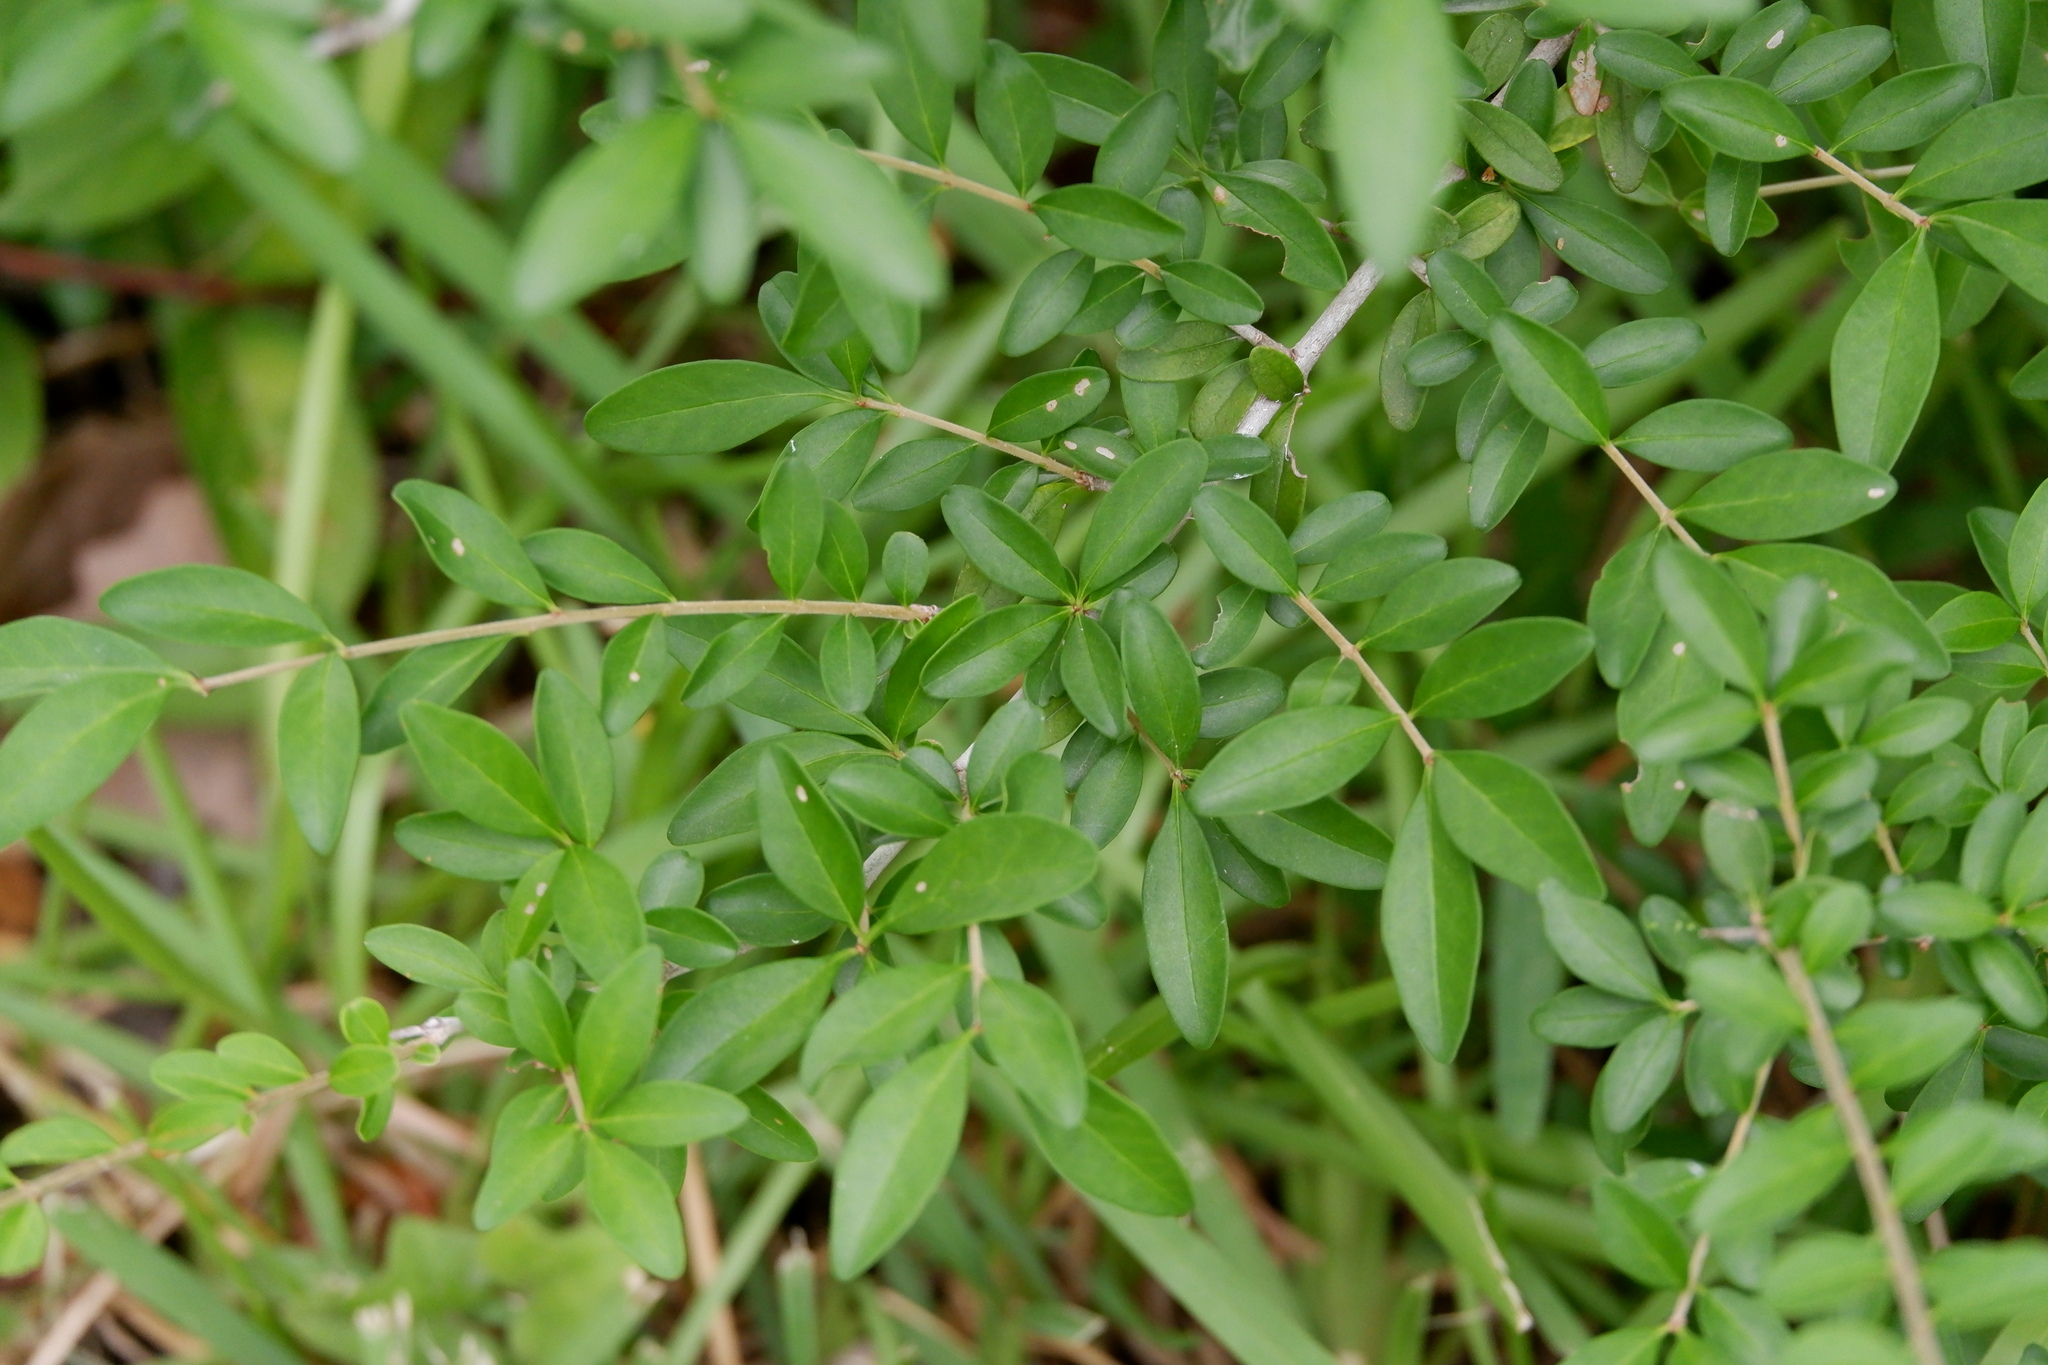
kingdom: Plantae
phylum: Tracheophyta
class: Magnoliopsida
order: Lamiales
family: Oleaceae
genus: Ligustrum
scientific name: Ligustrum quihoui
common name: Waxyleaf privet
